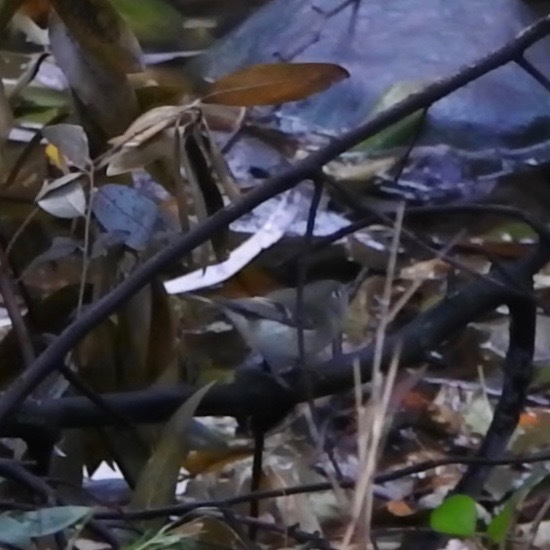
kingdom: Animalia
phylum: Chordata
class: Aves
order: Passeriformes
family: Regulidae
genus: Regulus
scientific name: Regulus calendula
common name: Ruby-crowned kinglet
